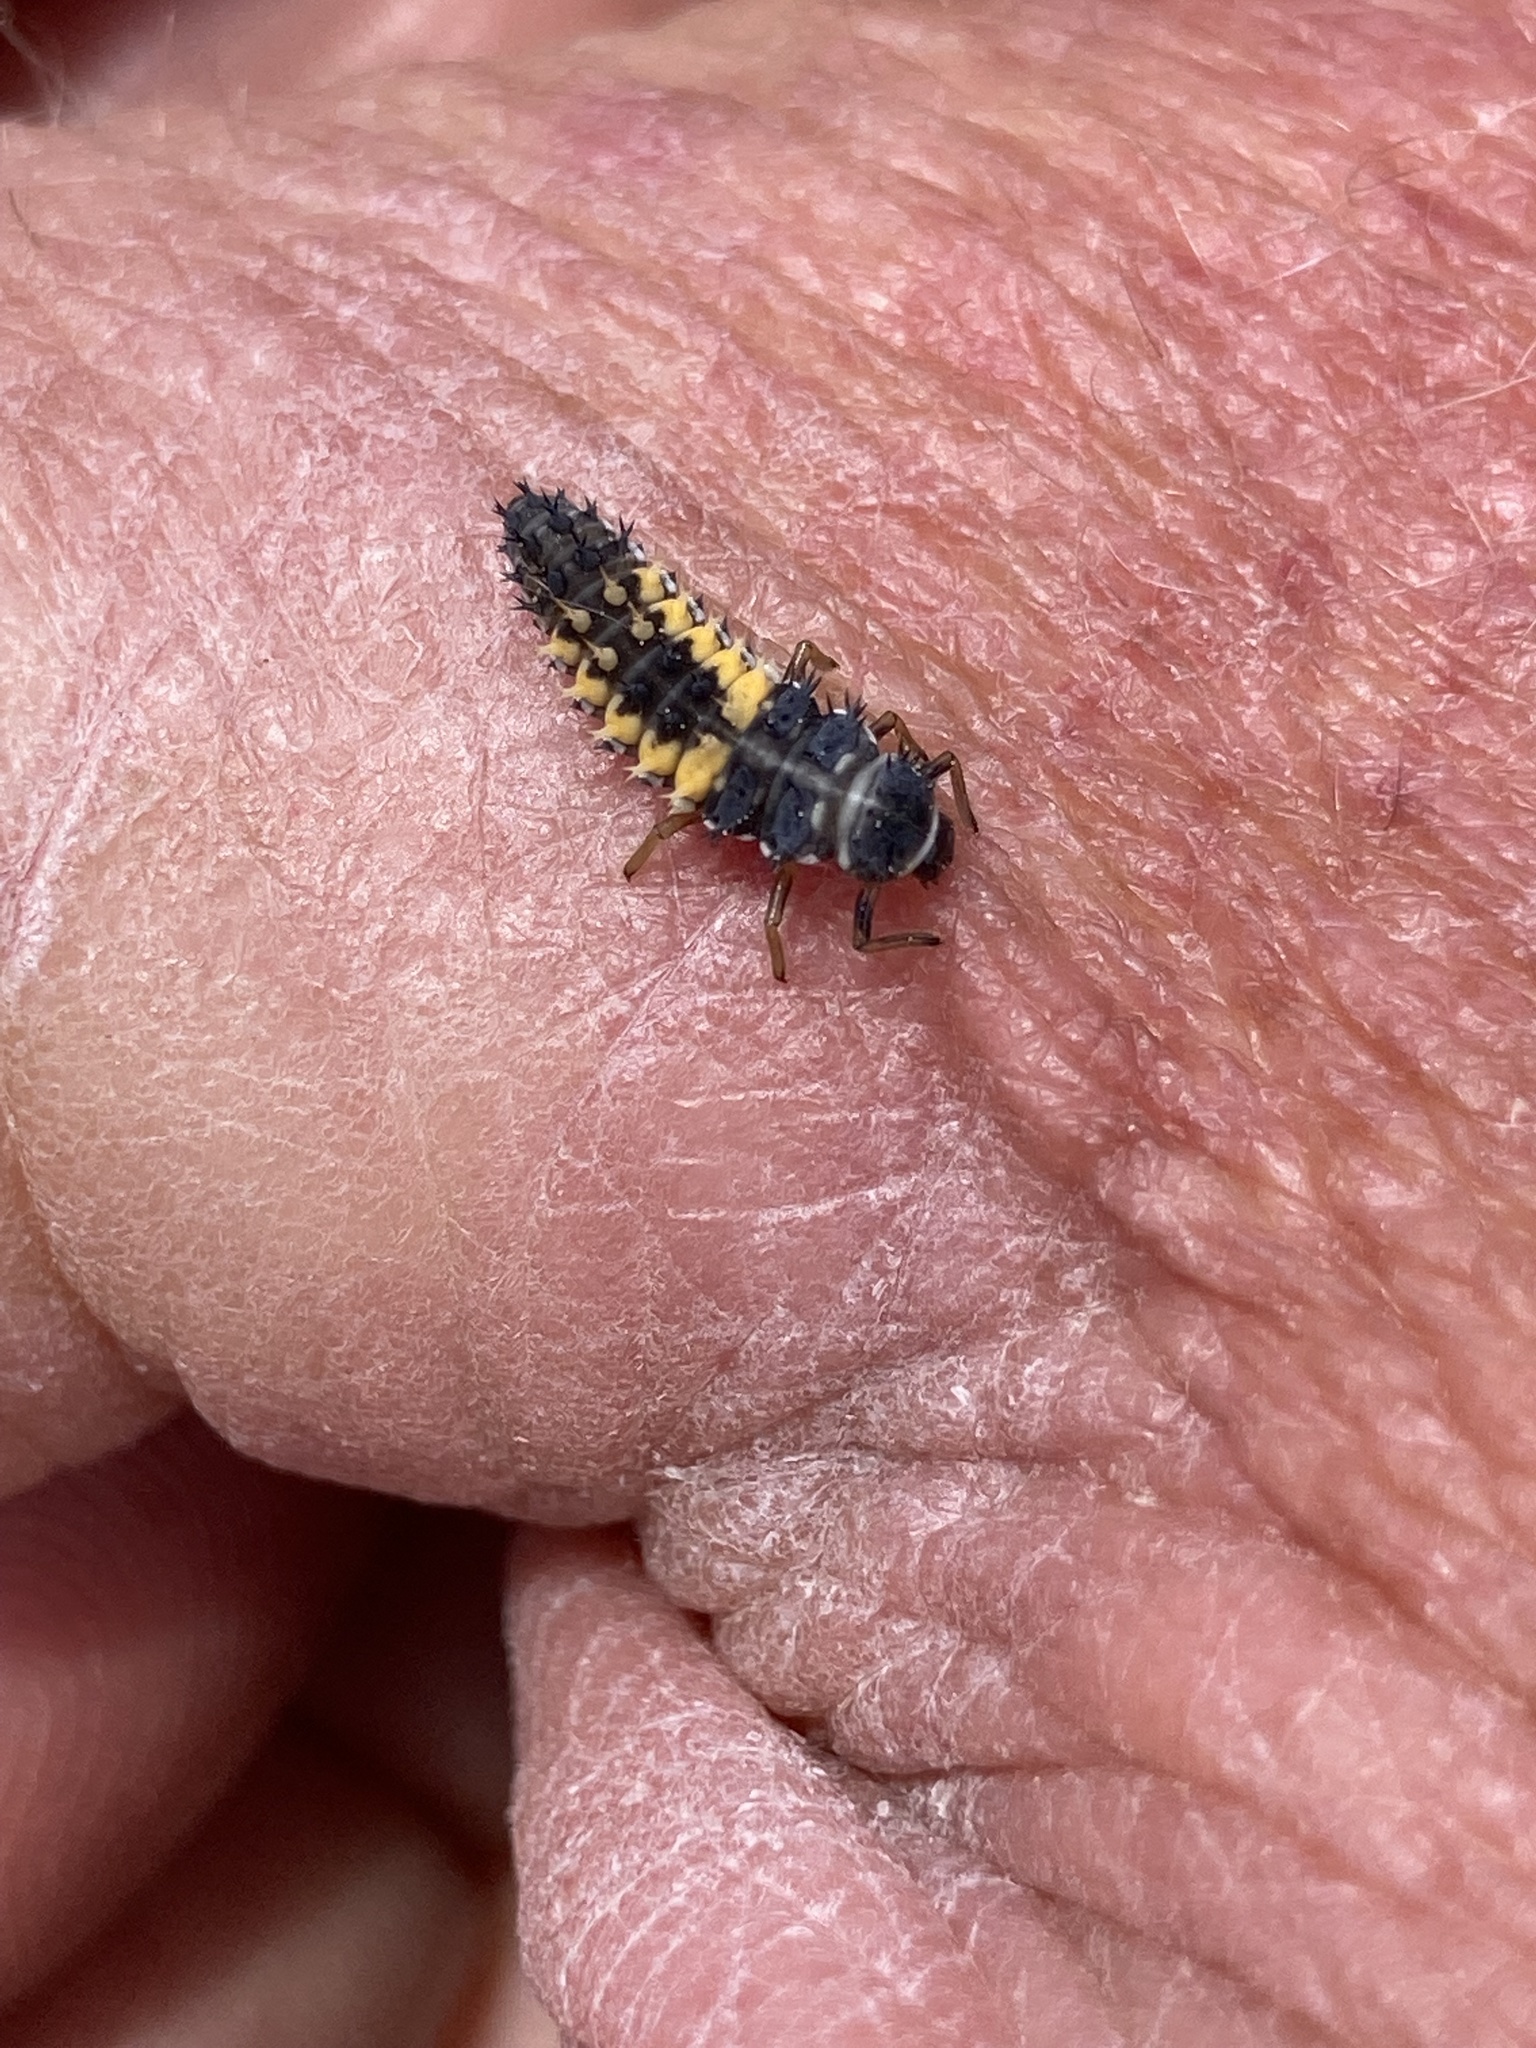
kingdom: Animalia
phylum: Arthropoda
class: Insecta
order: Coleoptera
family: Coccinellidae
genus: Harmonia
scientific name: Harmonia axyridis
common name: Harlequin ladybird
